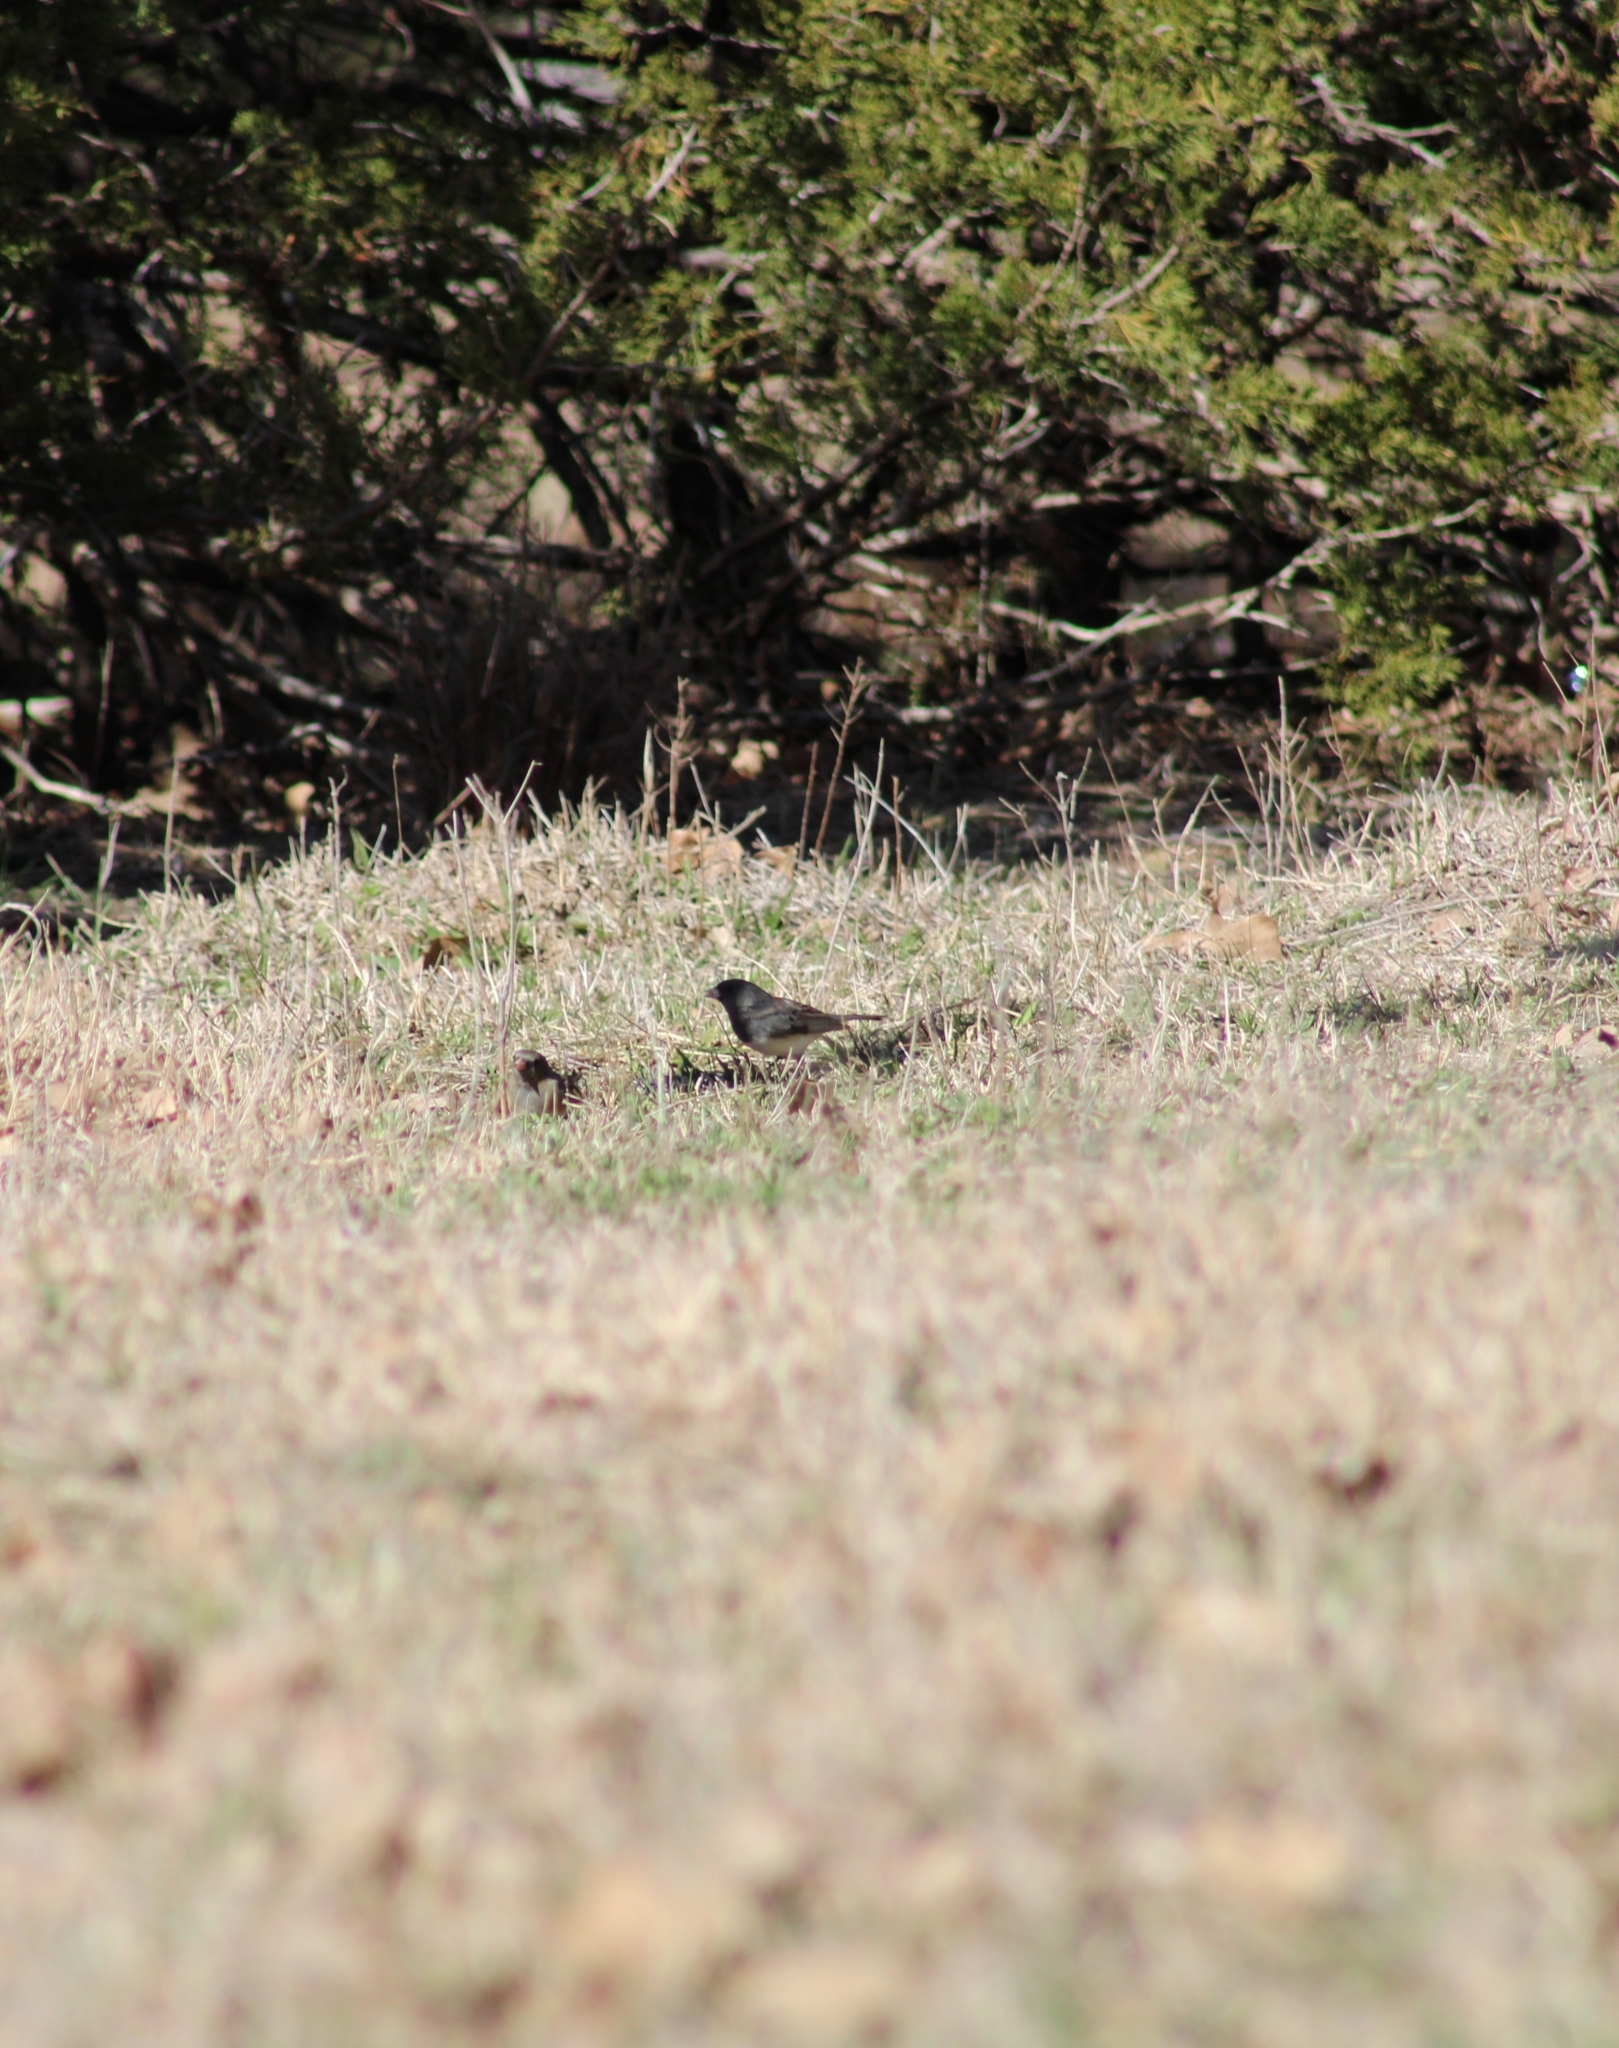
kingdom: Animalia
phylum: Chordata
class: Aves
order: Passeriformes
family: Passerellidae
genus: Junco
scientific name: Junco hyemalis
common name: Dark-eyed junco
